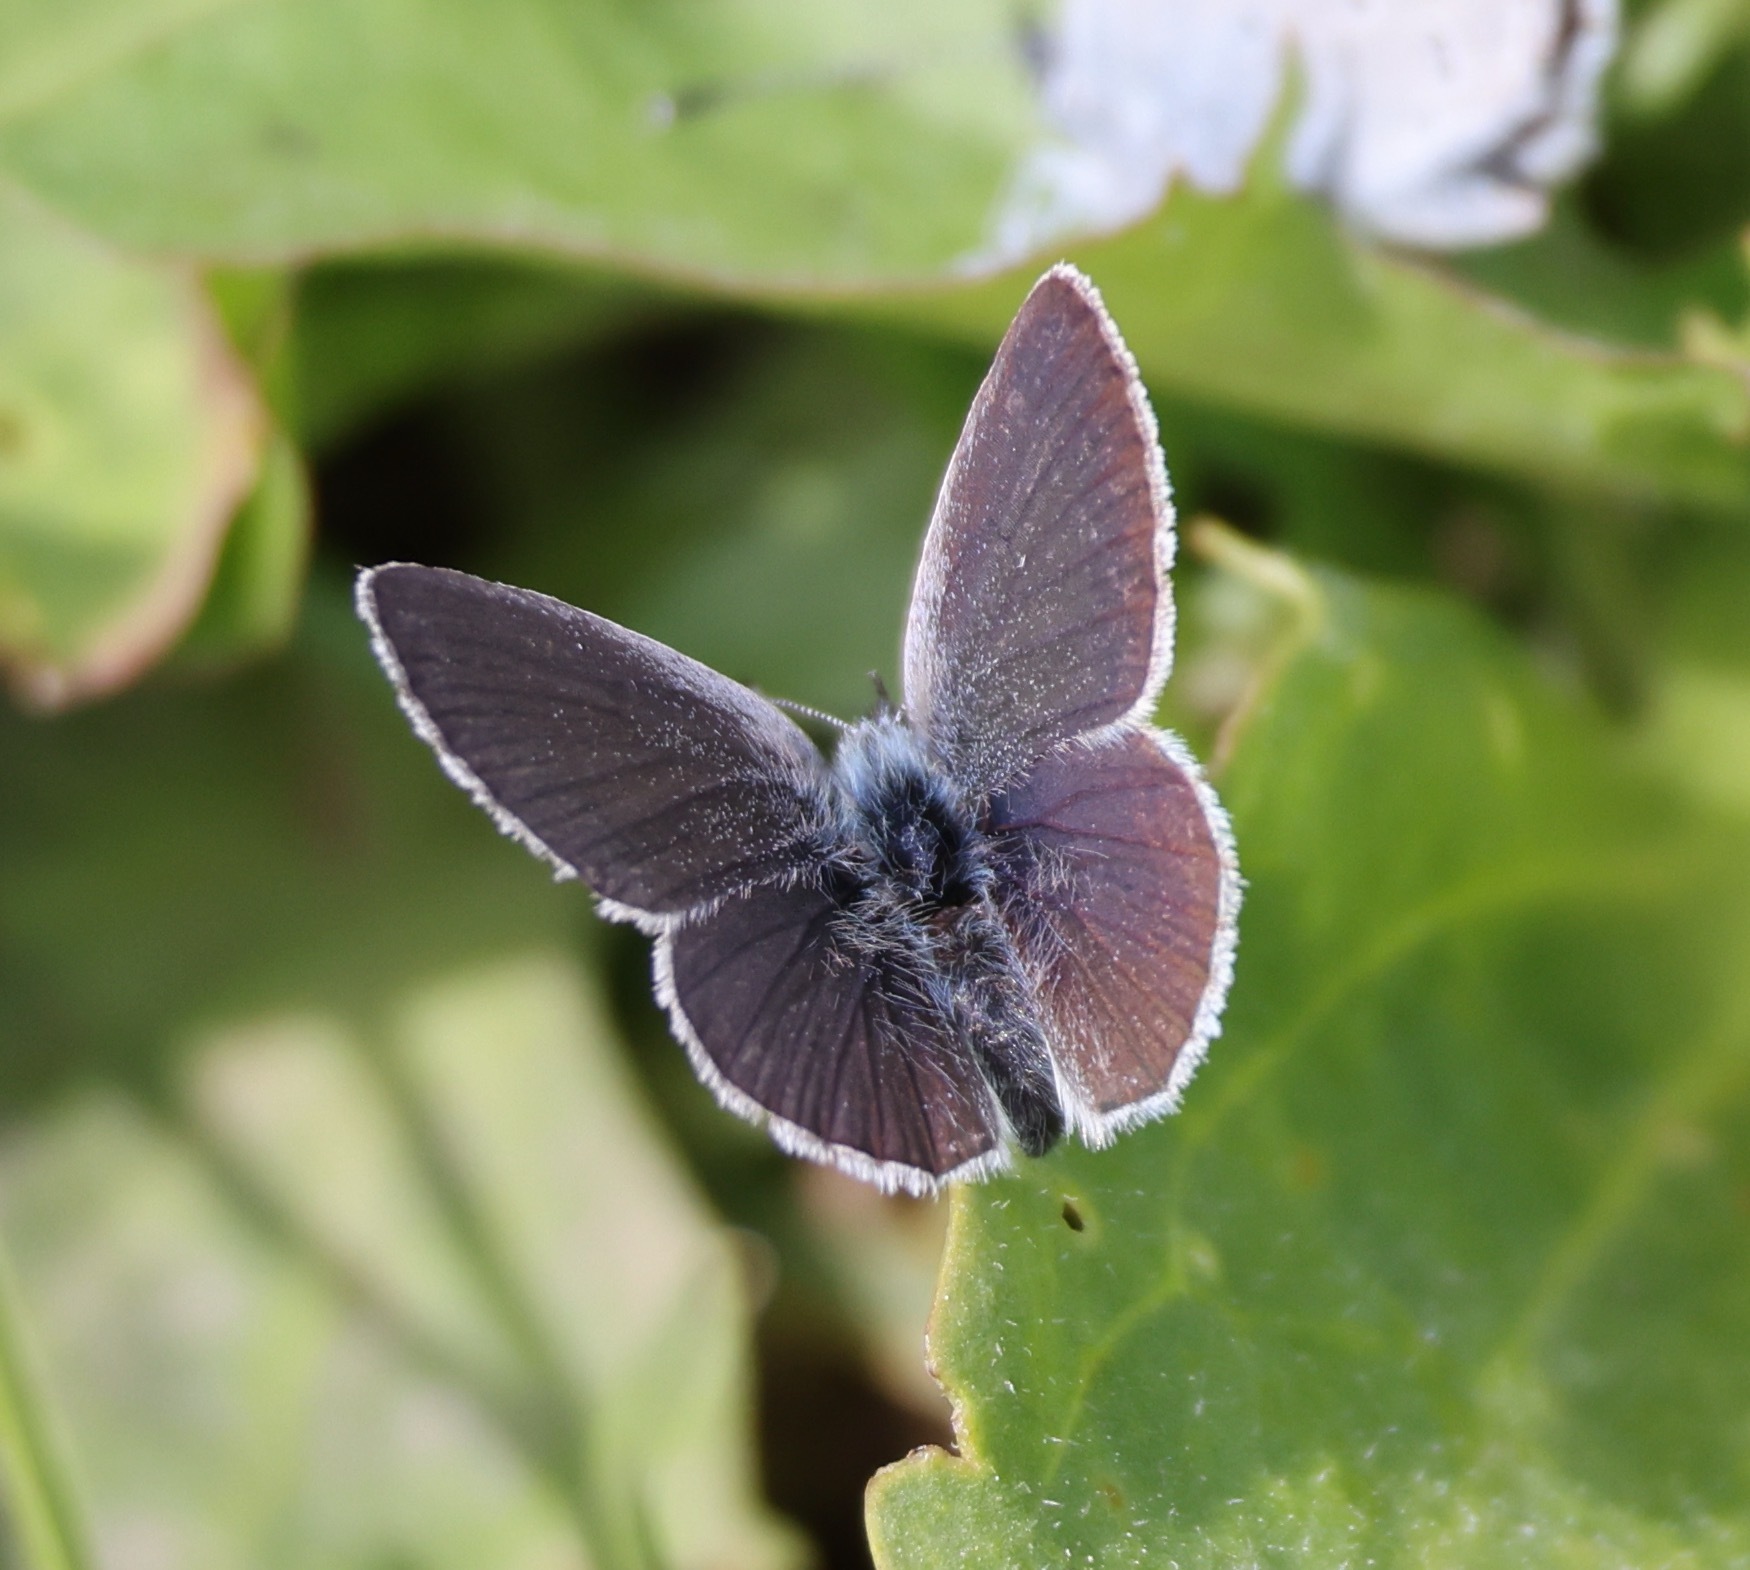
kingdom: Animalia
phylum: Arthropoda
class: Insecta
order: Lepidoptera
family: Lycaenidae
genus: Cupido
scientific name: Cupido minimus
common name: Small blue
